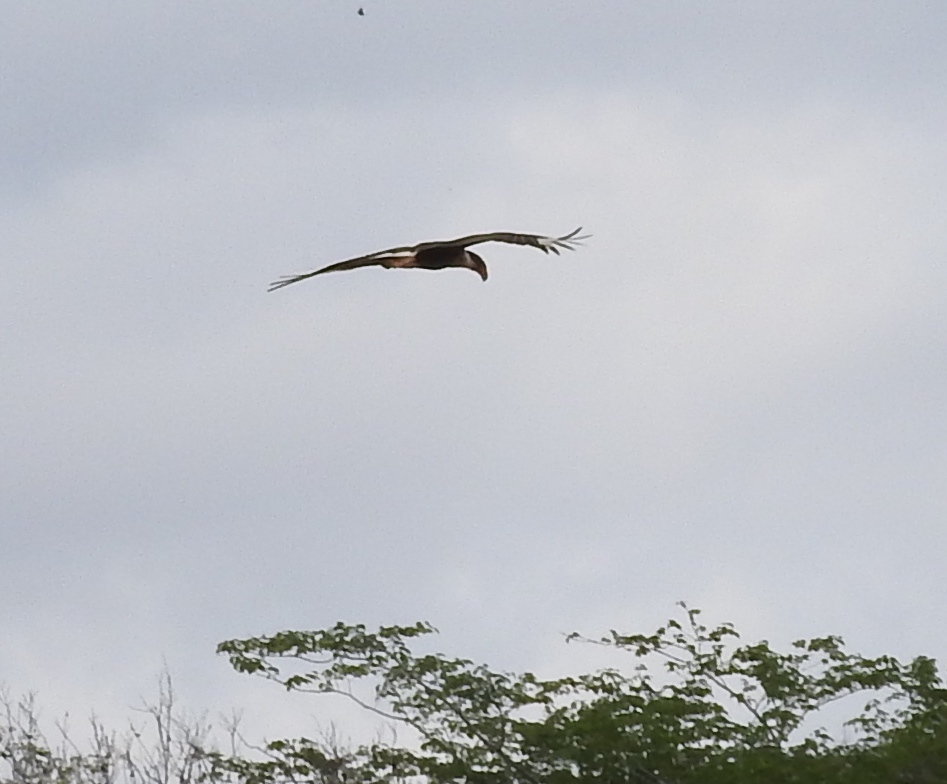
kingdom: Animalia
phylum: Chordata
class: Aves
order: Falconiformes
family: Falconidae
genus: Caracara
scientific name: Caracara plancus
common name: Southern caracara
